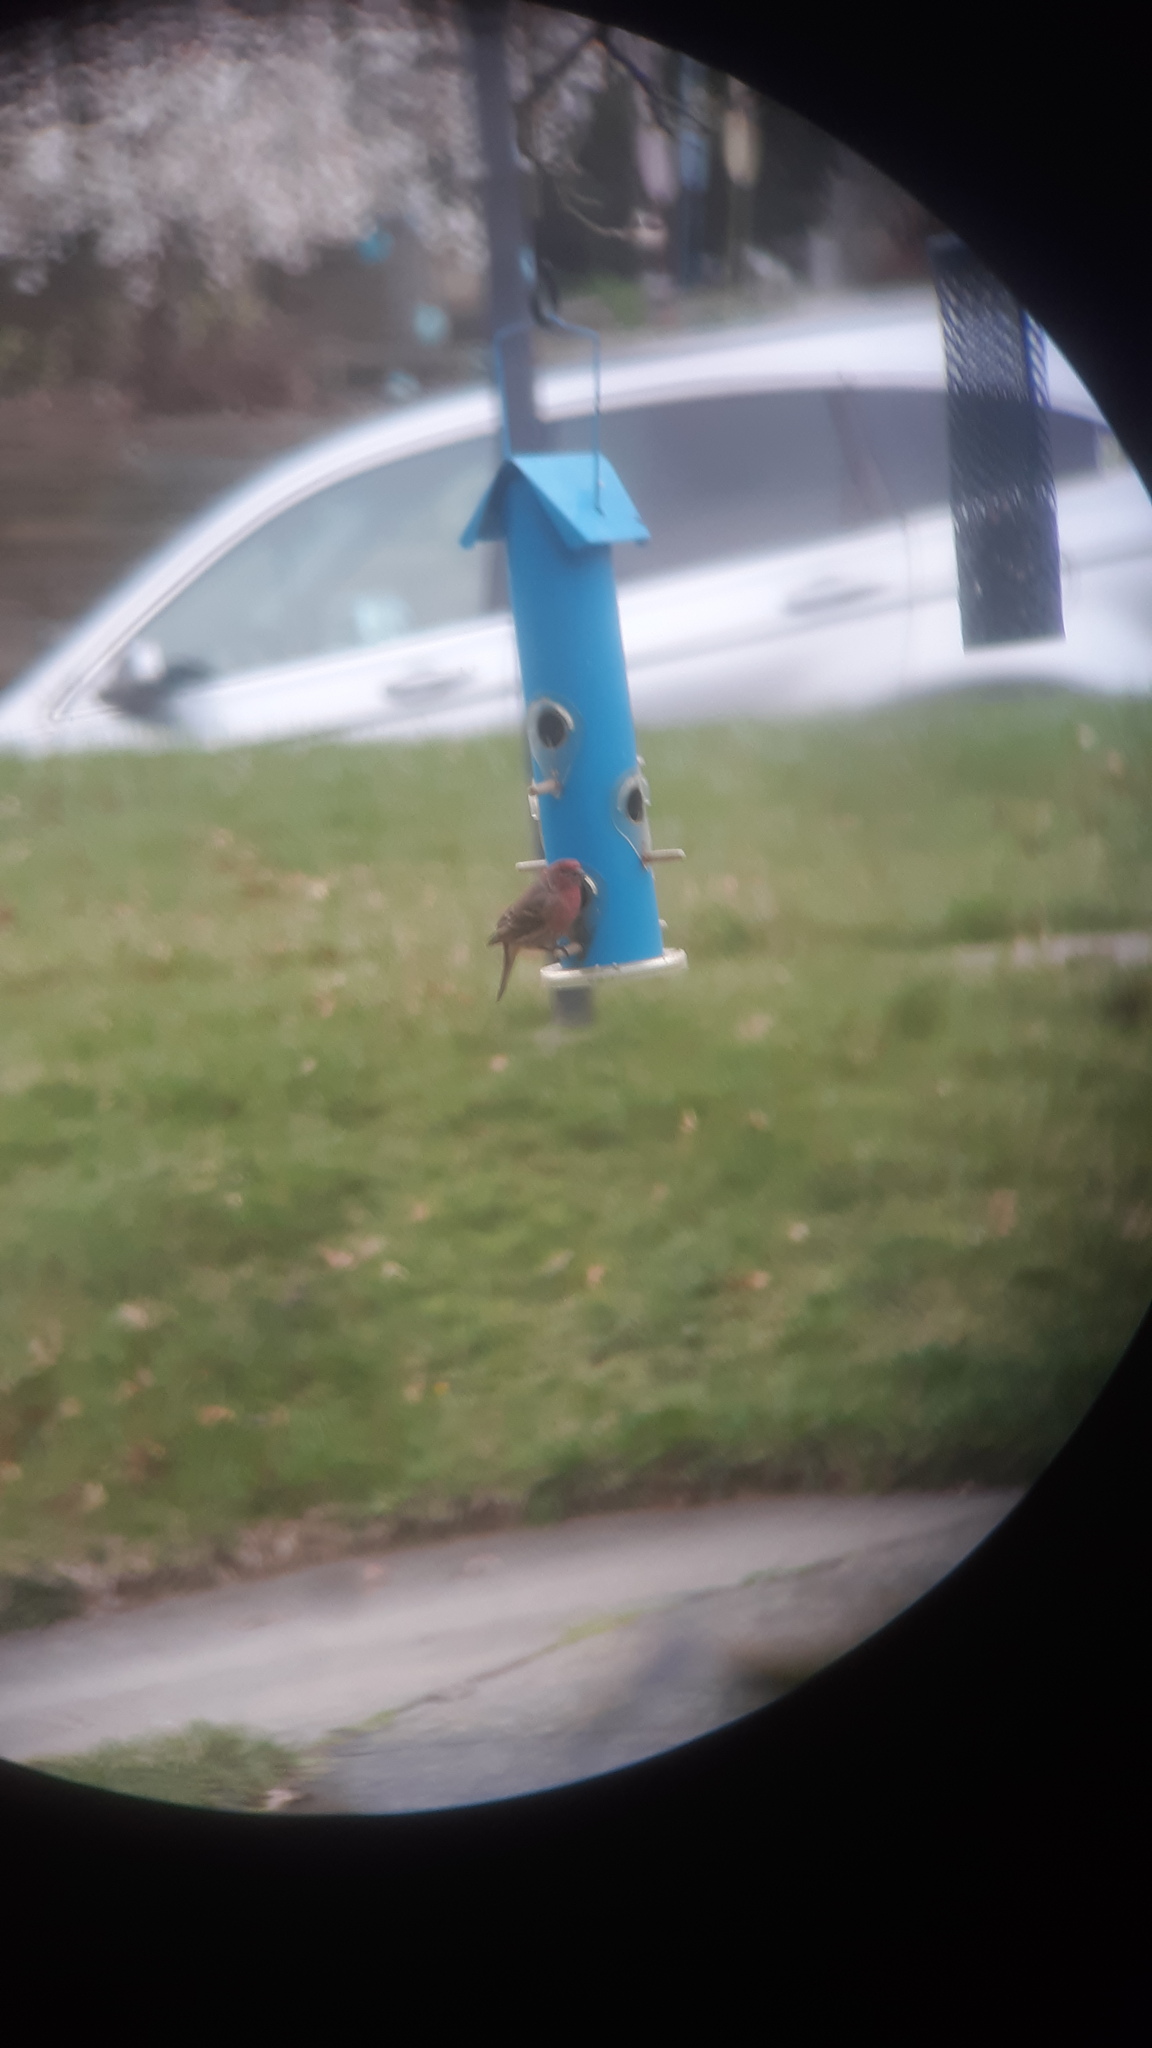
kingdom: Animalia
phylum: Chordata
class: Aves
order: Passeriformes
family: Fringillidae
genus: Haemorhous
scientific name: Haemorhous mexicanus
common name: House finch
